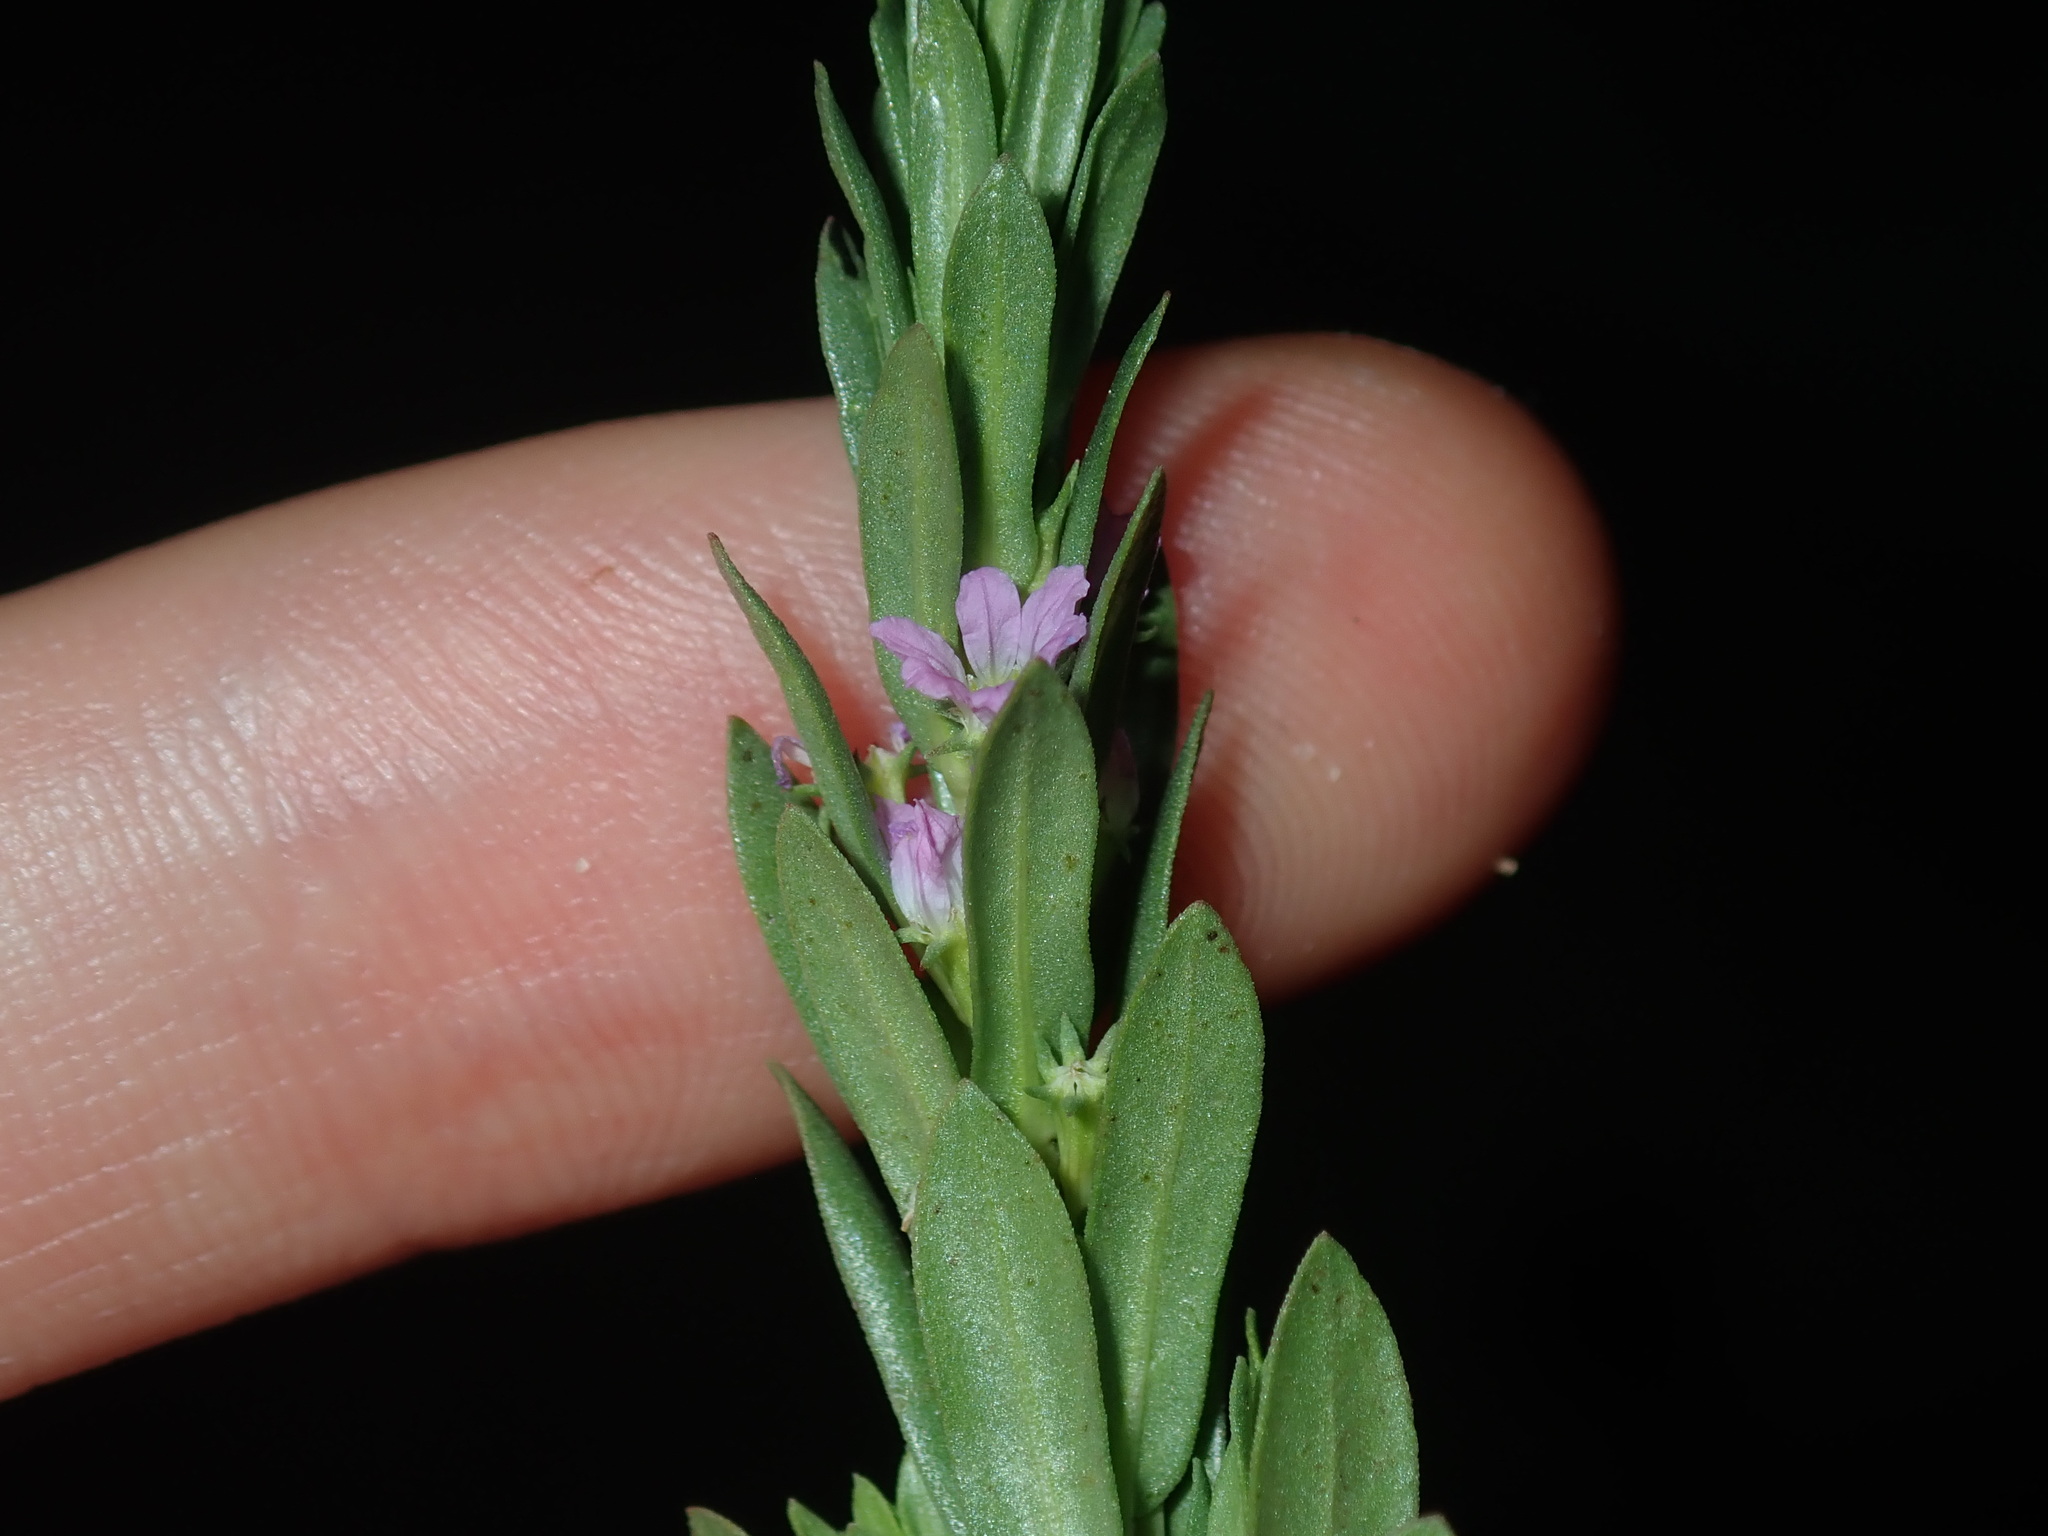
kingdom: Plantae
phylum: Tracheophyta
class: Magnoliopsida
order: Myrtales
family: Lythraceae
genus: Lythrum
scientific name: Lythrum hyssopifolia
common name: Grass-poly
